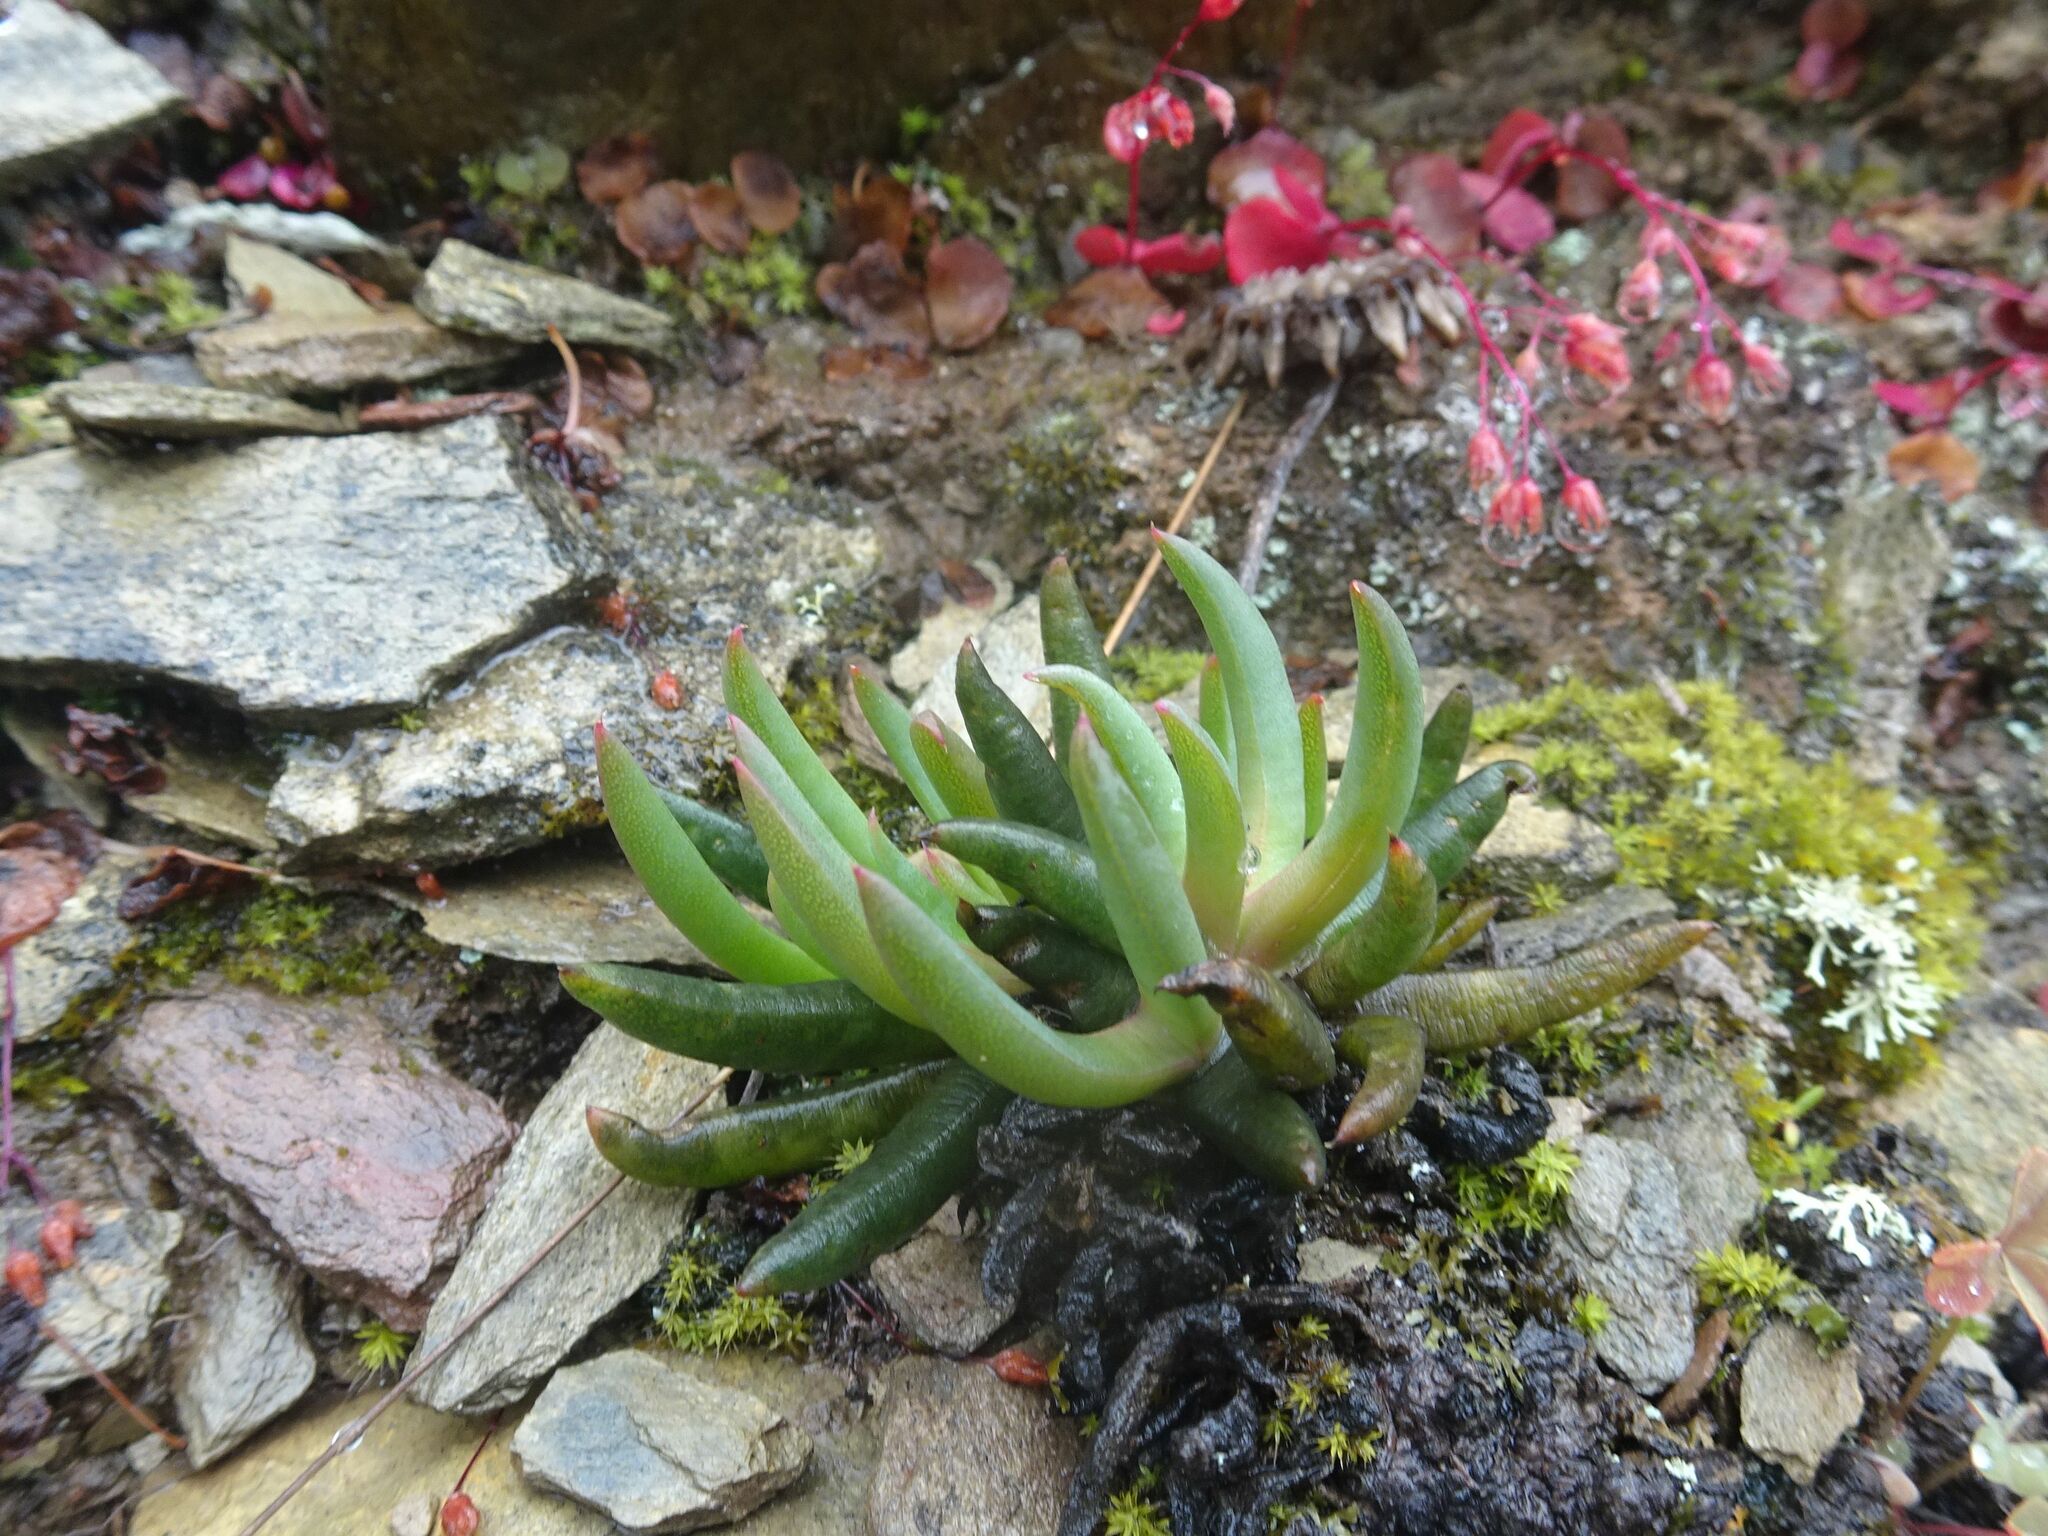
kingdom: Plantae
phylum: Tracheophyta
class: Magnoliopsida
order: Saxifragales
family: Crassulaceae
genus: Crassula
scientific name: Crassula nudicaulis
